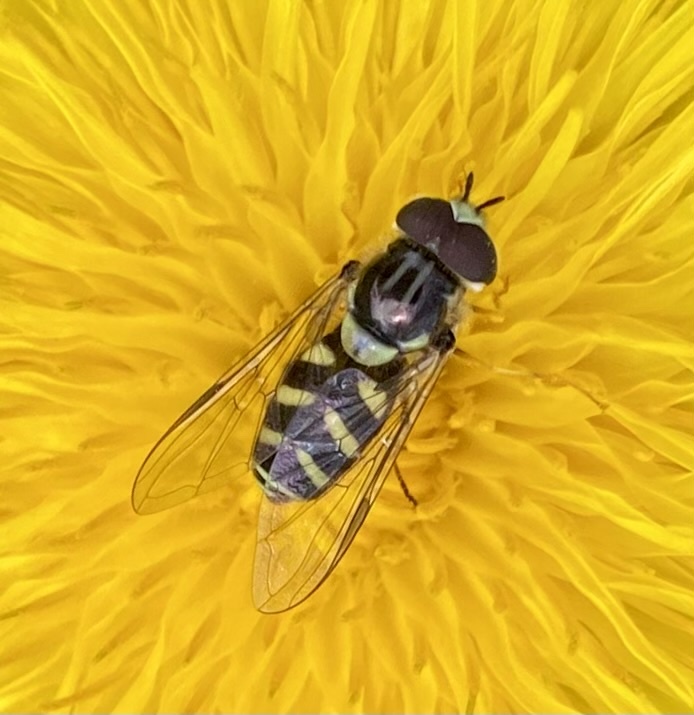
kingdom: Animalia
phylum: Arthropoda
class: Insecta
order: Diptera
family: Syrphidae
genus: Dasysyrphus
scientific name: Dasysyrphus albostriatus
